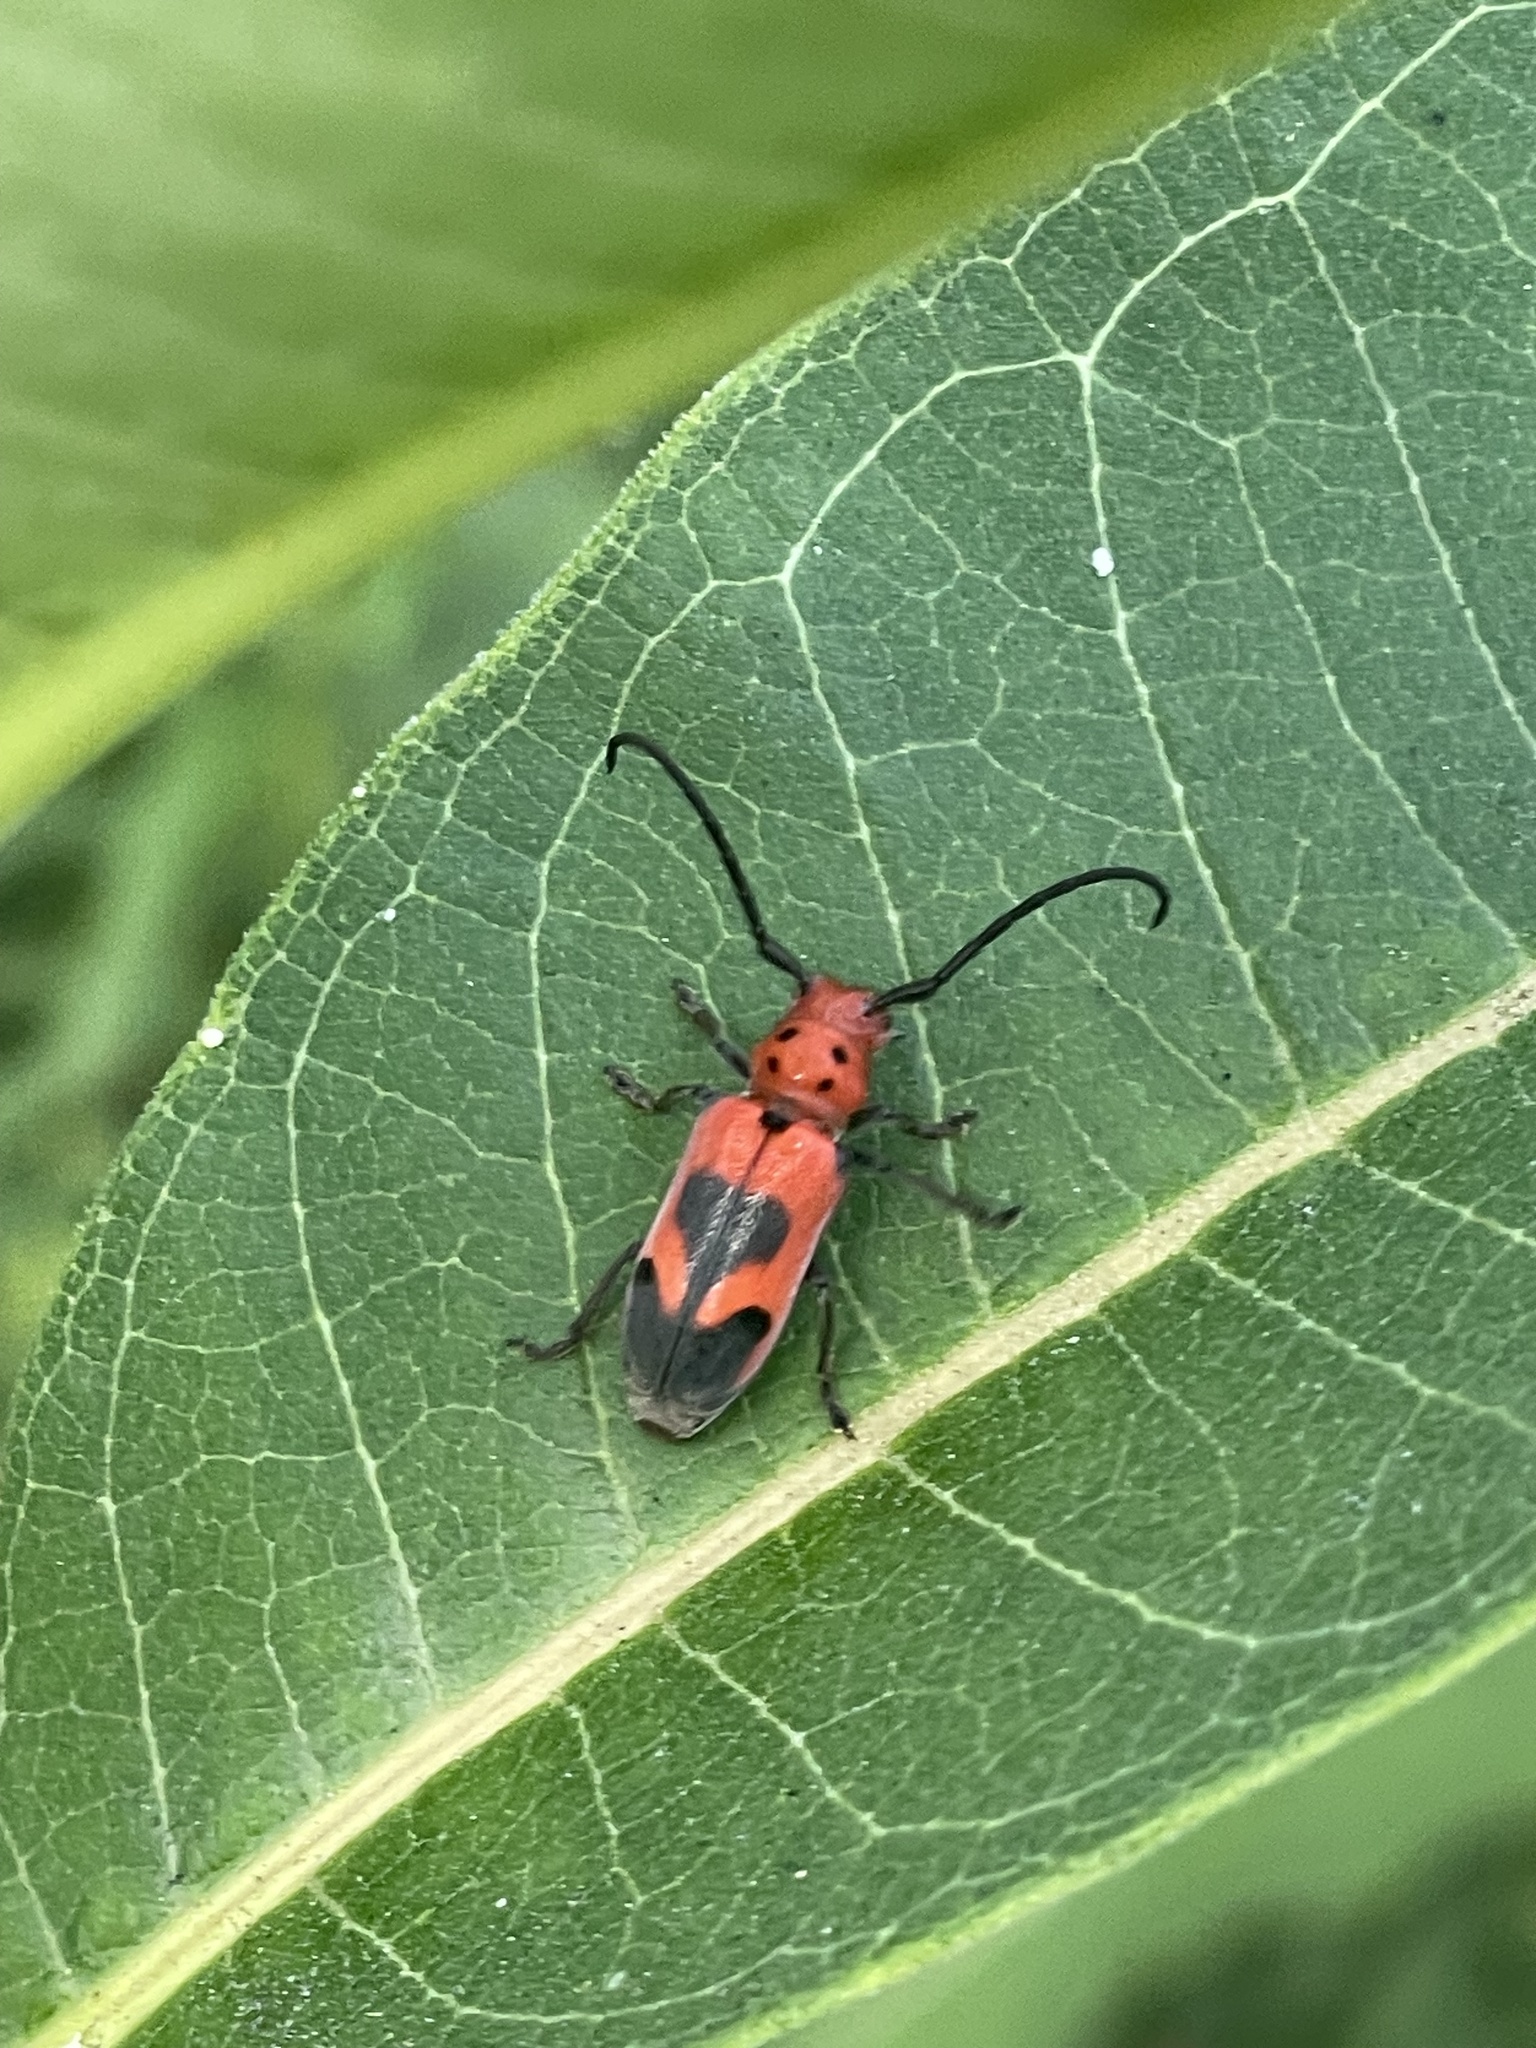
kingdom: Animalia
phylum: Arthropoda
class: Insecta
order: Coleoptera
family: Cerambycidae
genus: Tetraopes
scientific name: Tetraopes melanurus
